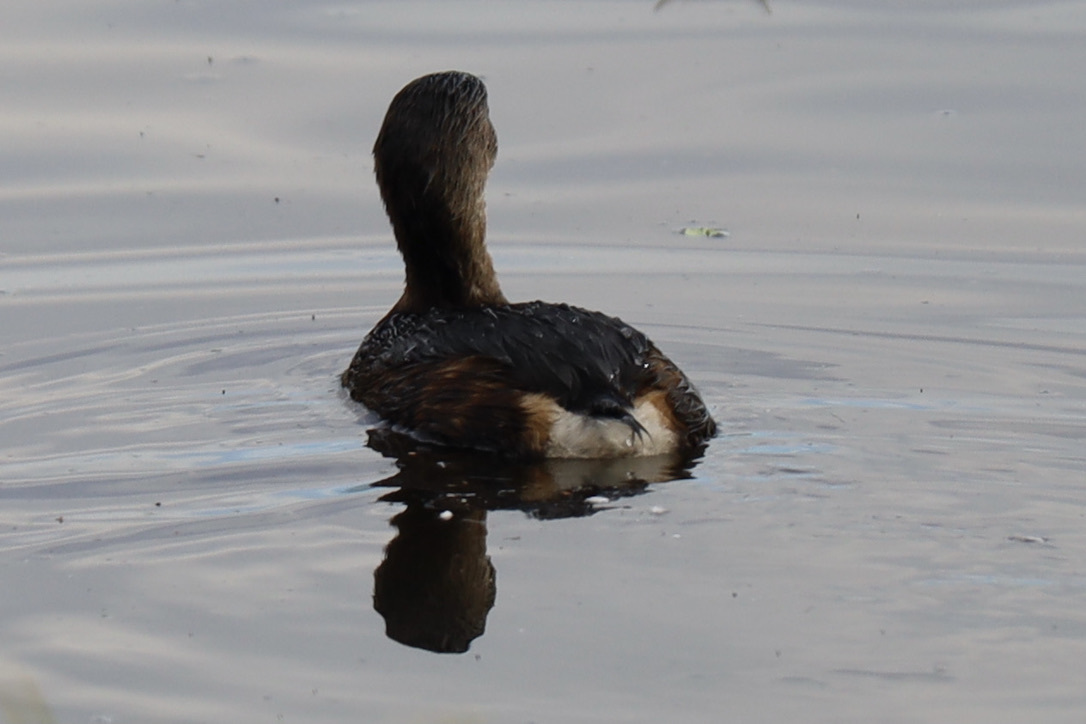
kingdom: Animalia
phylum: Chordata
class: Aves
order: Podicipediformes
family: Podicipedidae
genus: Podilymbus
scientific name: Podilymbus podiceps
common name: Pied-billed grebe
